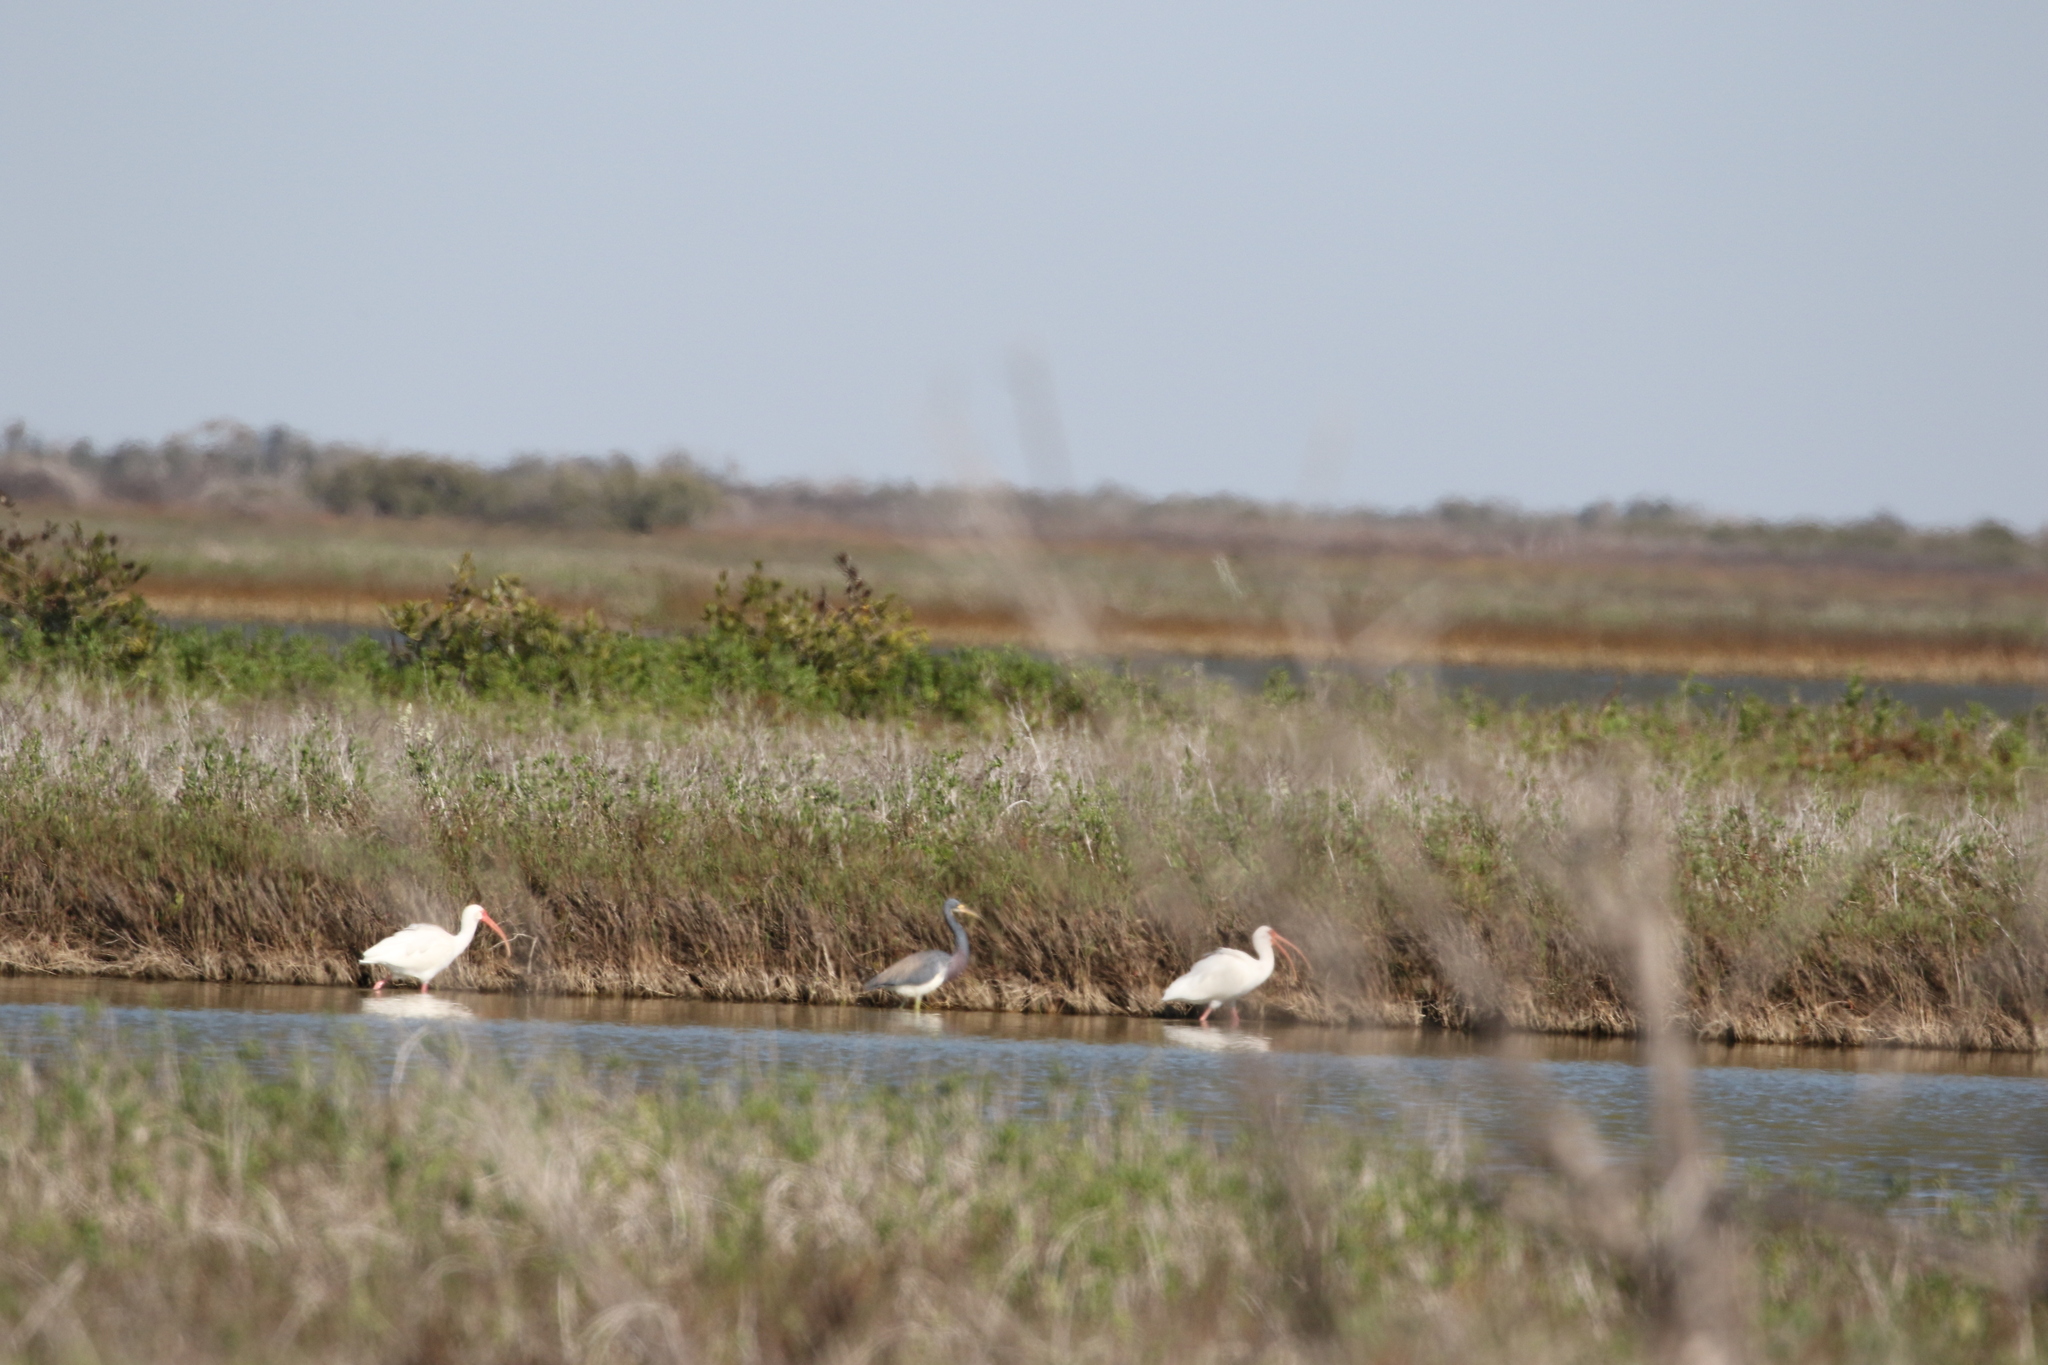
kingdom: Animalia
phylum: Chordata
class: Aves
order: Pelecaniformes
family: Ardeidae
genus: Egretta
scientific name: Egretta tricolor
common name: Tricolored heron
